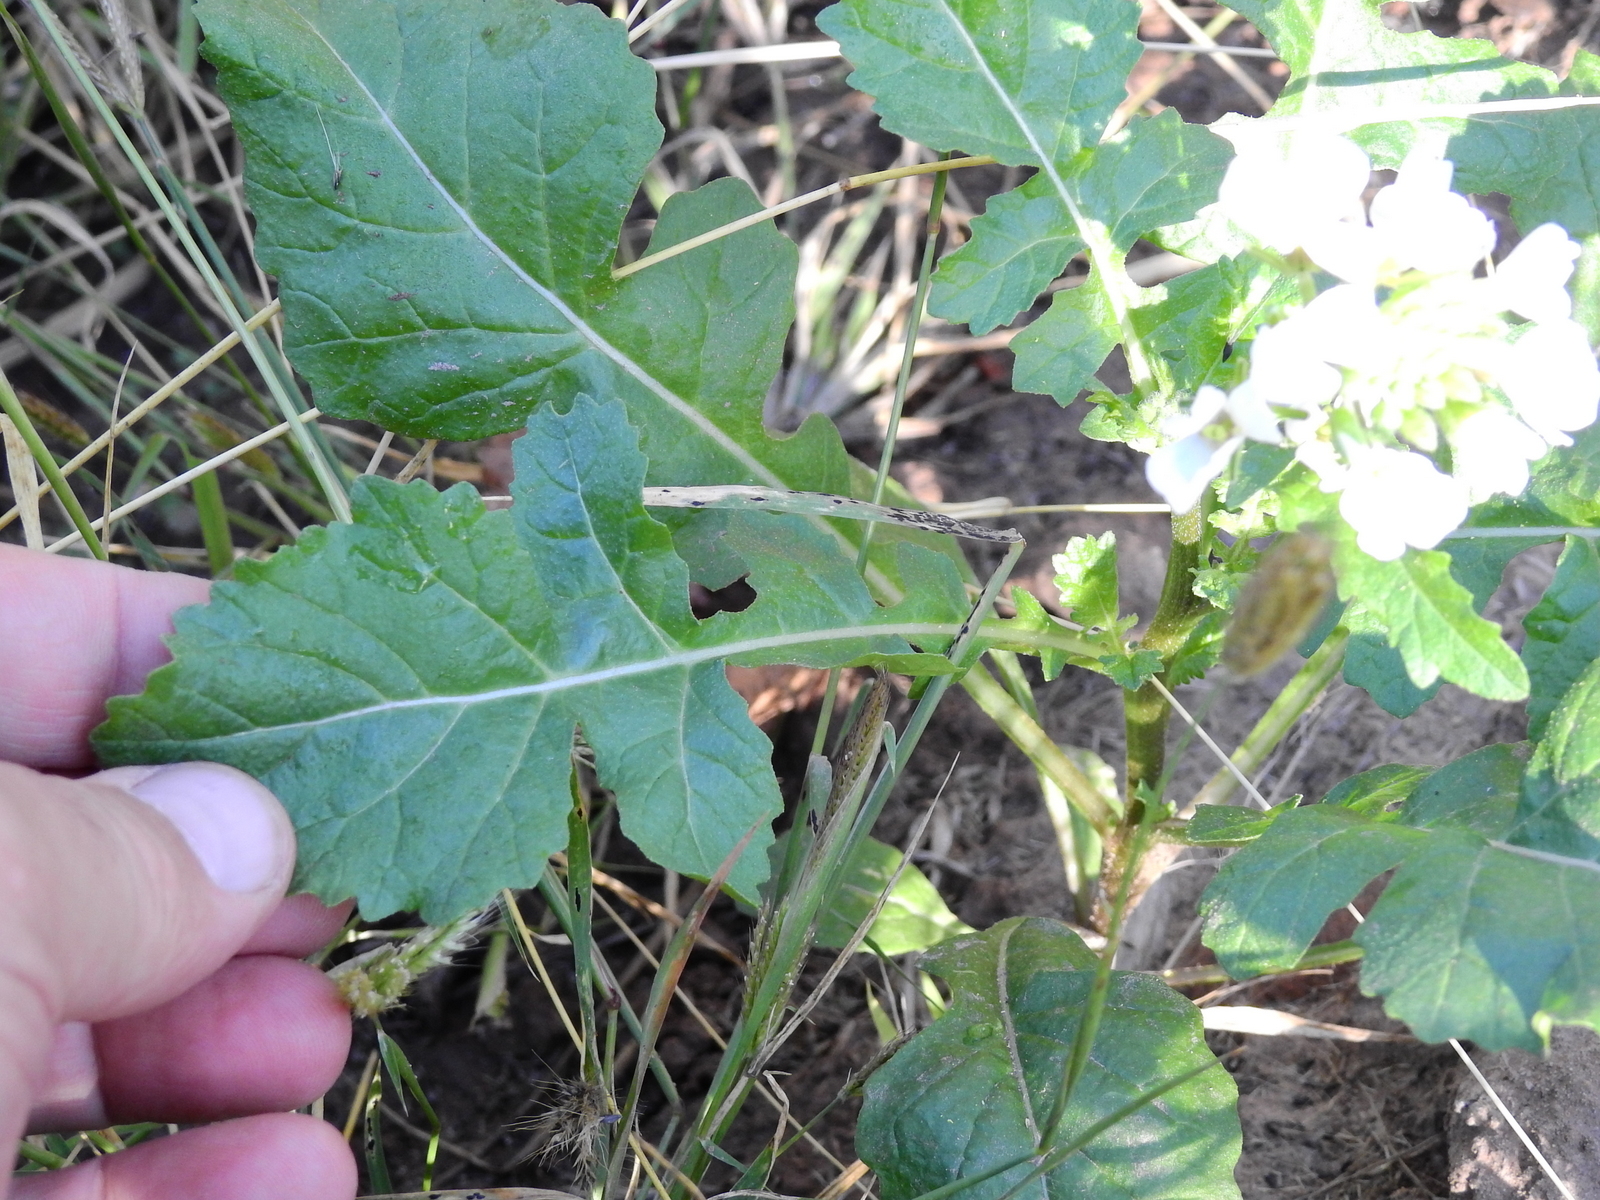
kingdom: Plantae
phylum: Tracheophyta
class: Magnoliopsida
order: Brassicales
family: Brassicaceae
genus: Diplotaxis
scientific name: Diplotaxis erucoides
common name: White rocket
